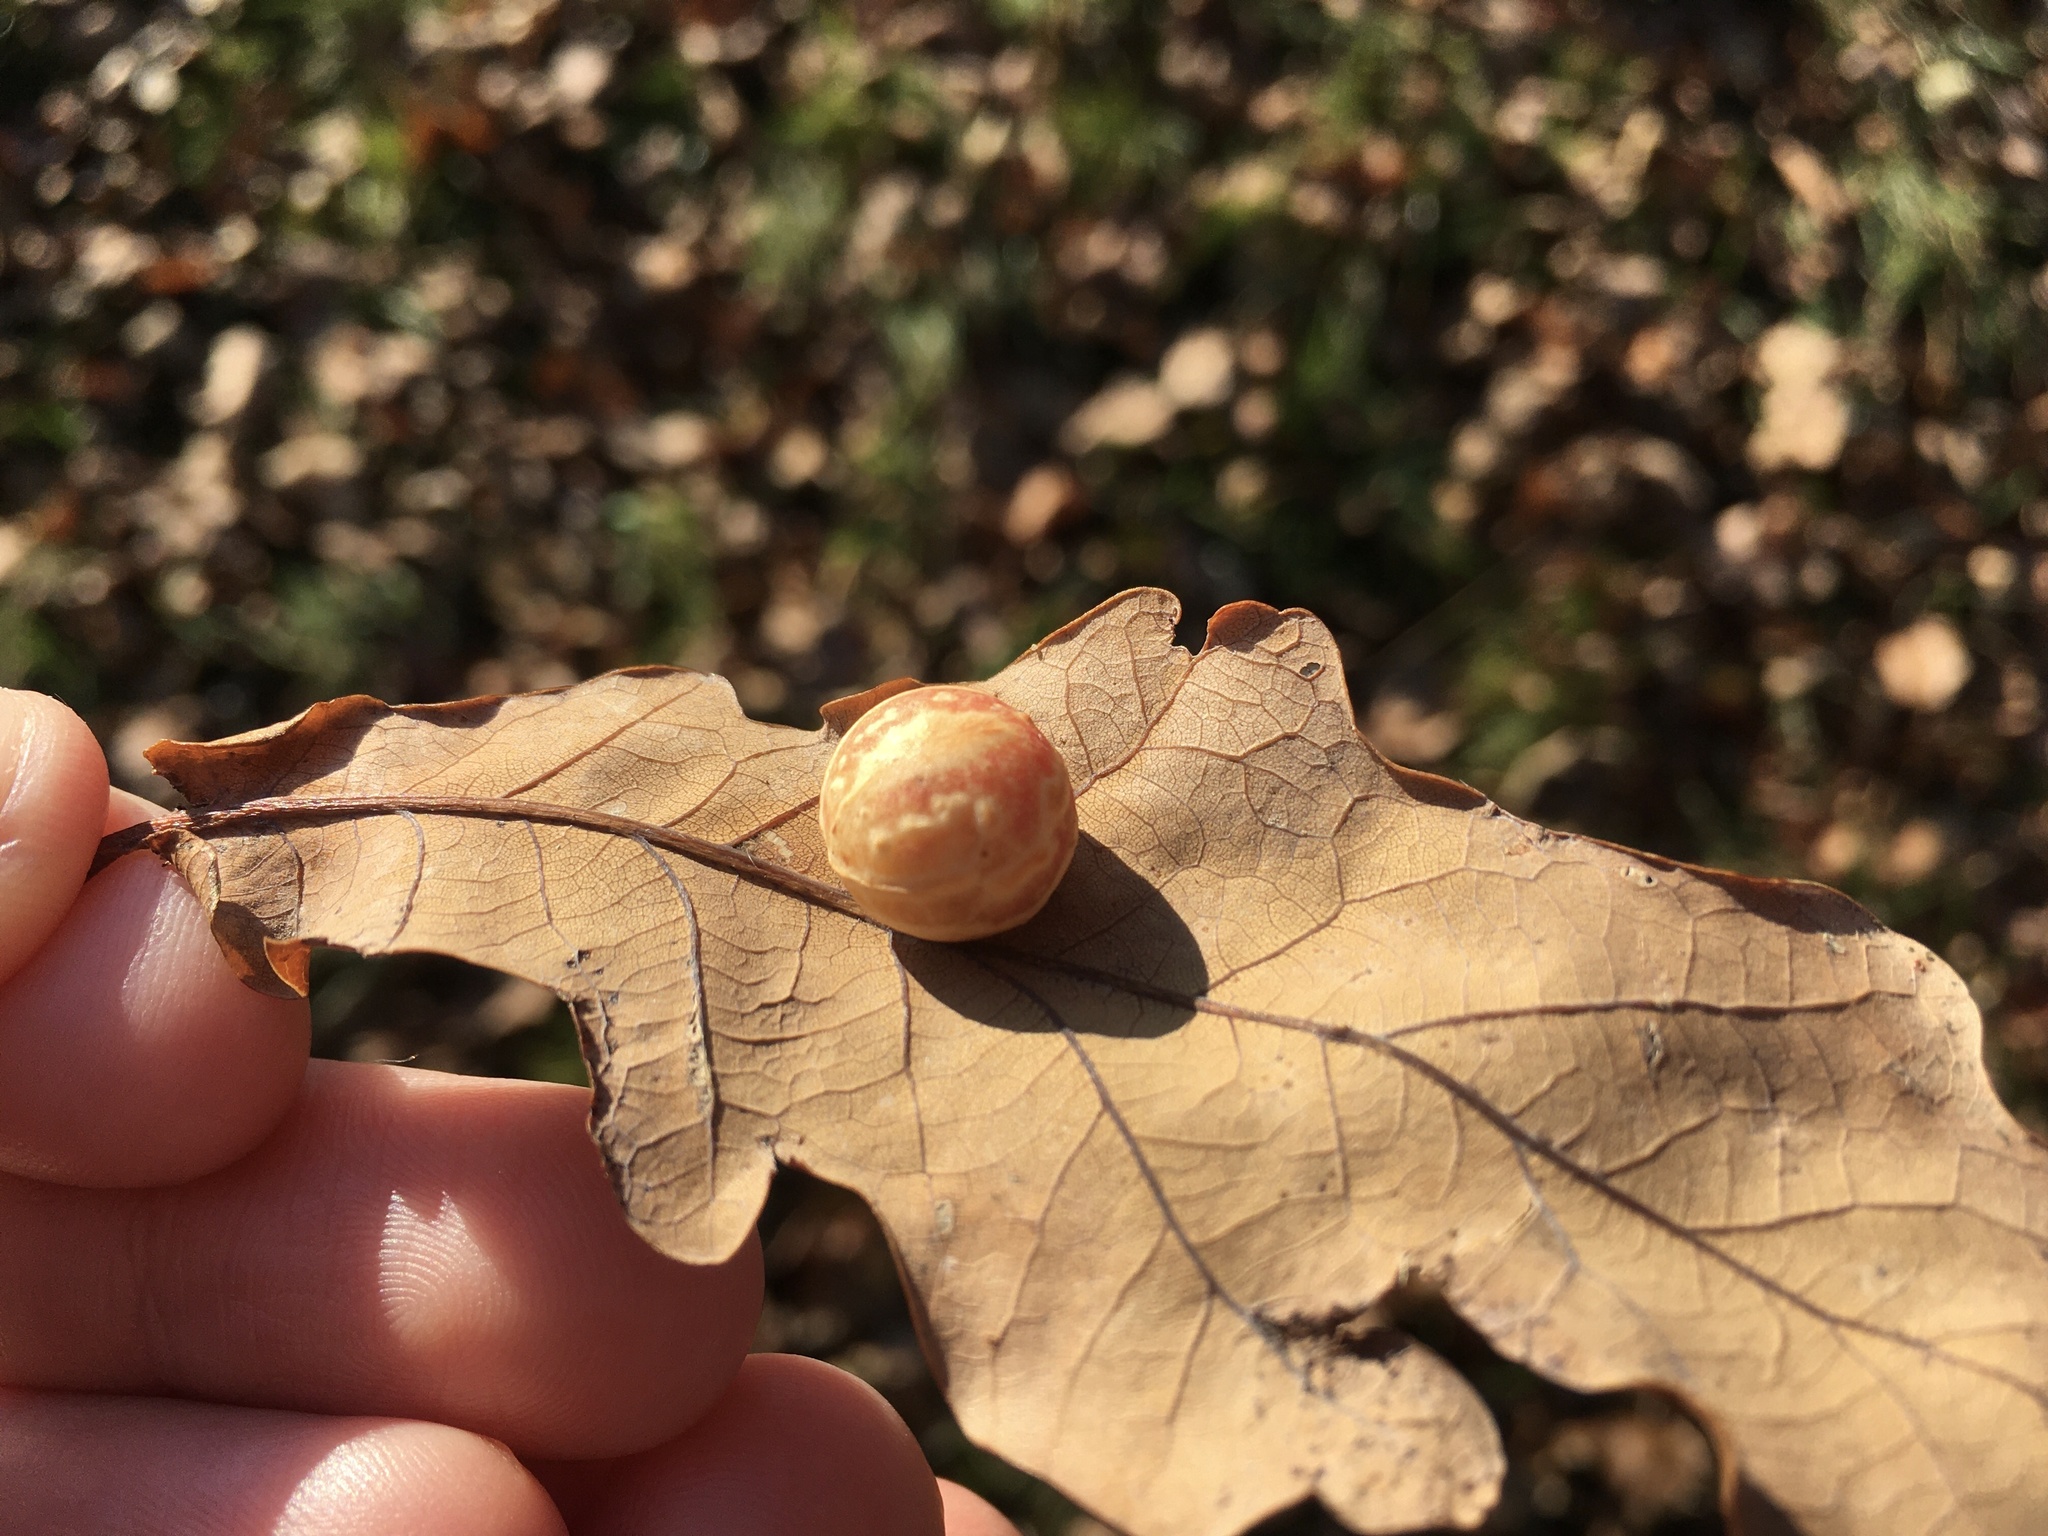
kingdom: Animalia
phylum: Arthropoda
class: Insecta
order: Hymenoptera
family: Cynipidae
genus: Cynips
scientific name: Cynips longiventris
